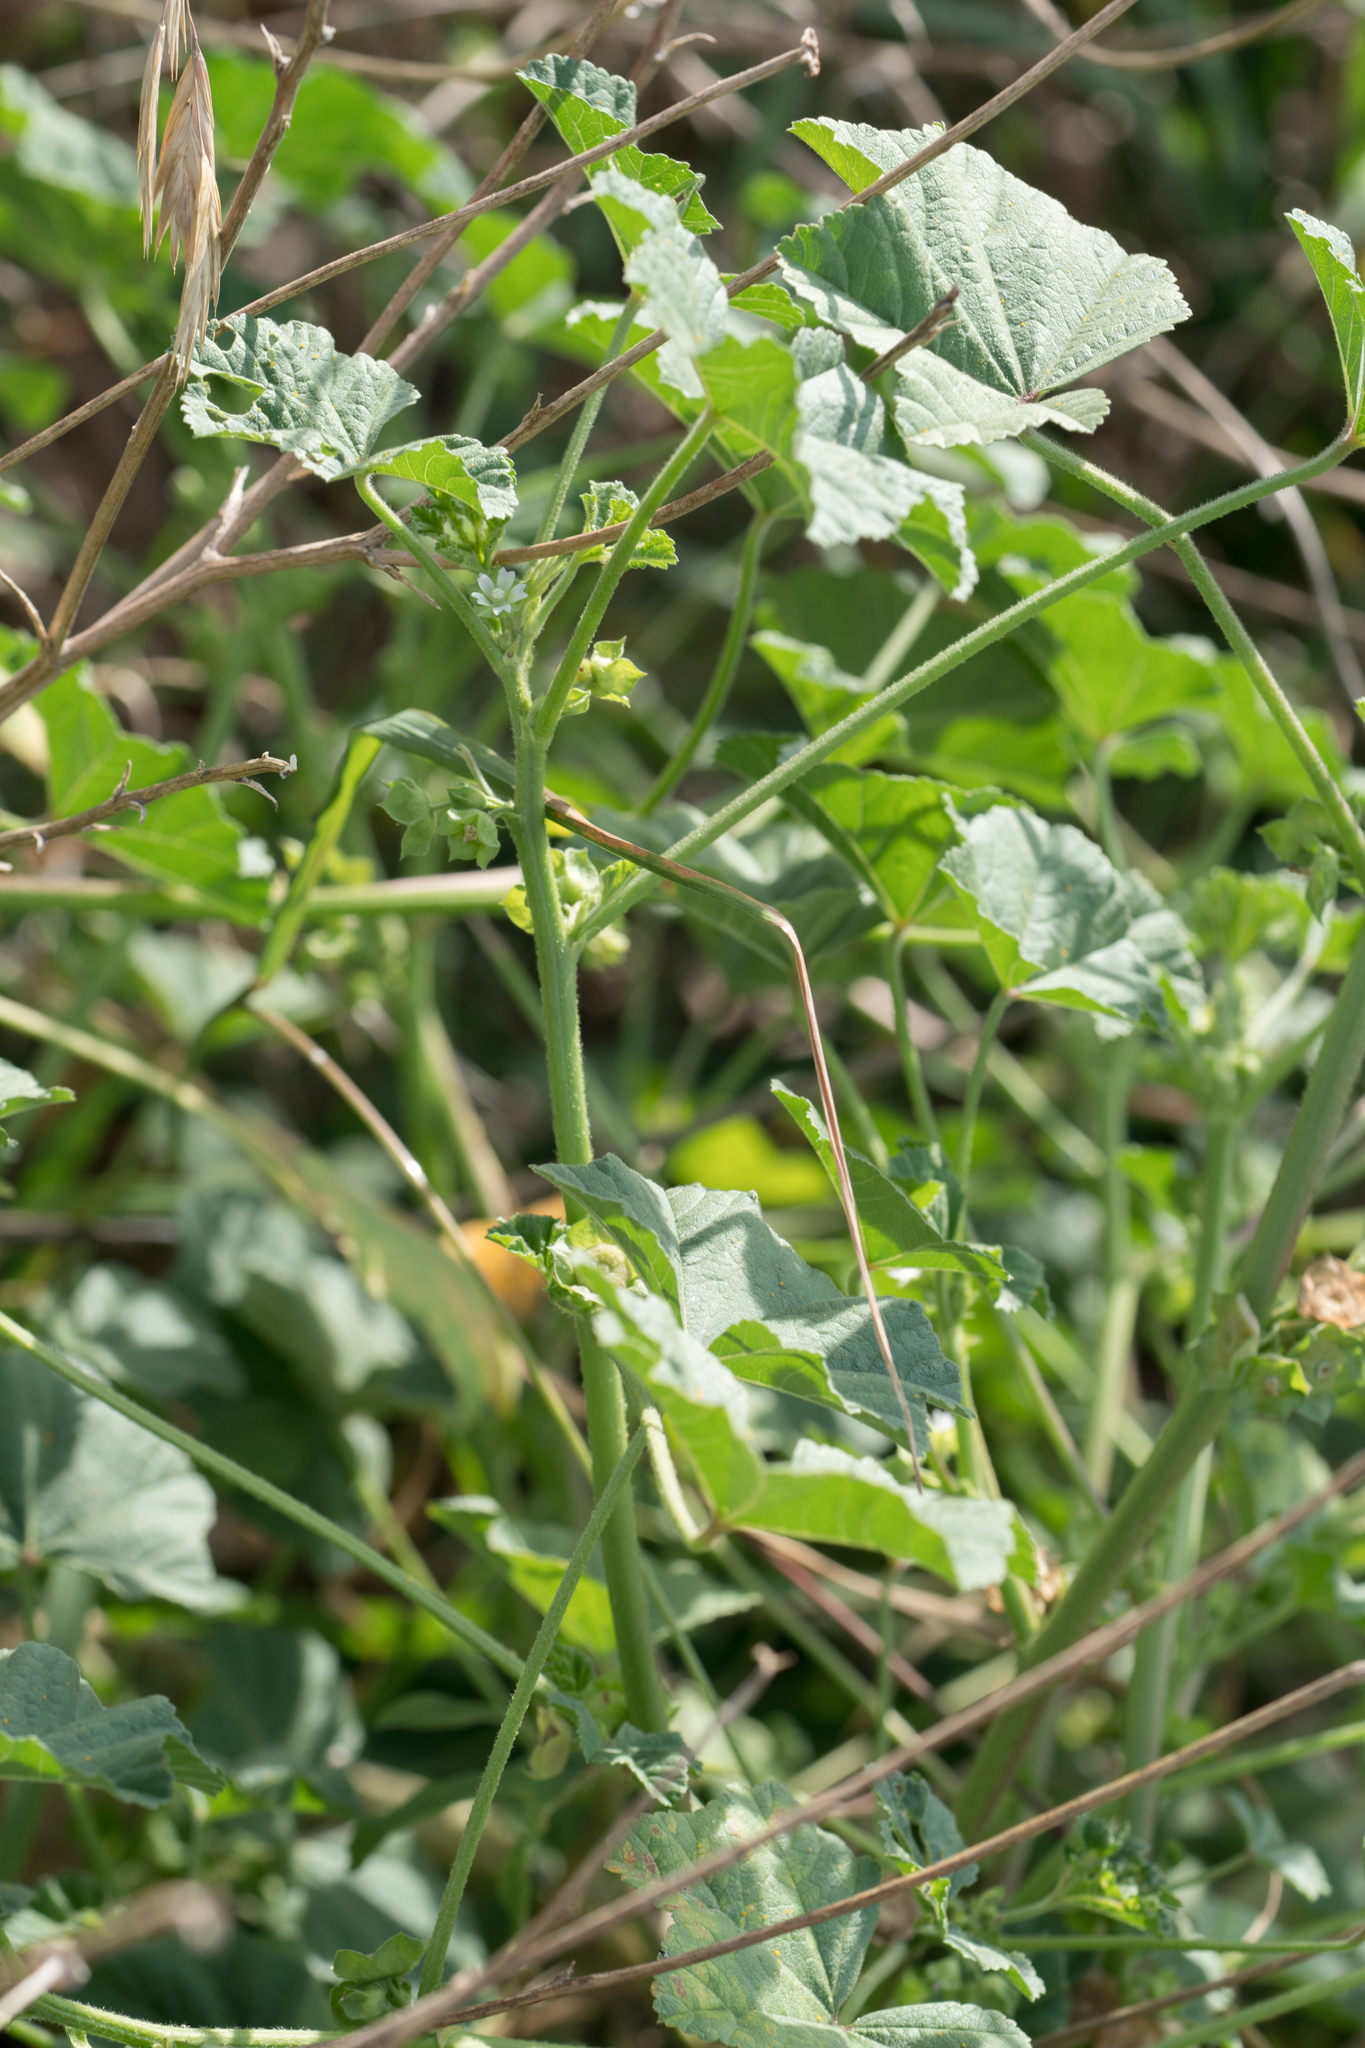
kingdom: Plantae
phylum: Tracheophyta
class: Magnoliopsida
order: Malvales
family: Malvaceae
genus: Malva
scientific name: Malva parviflora
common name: Least mallow
